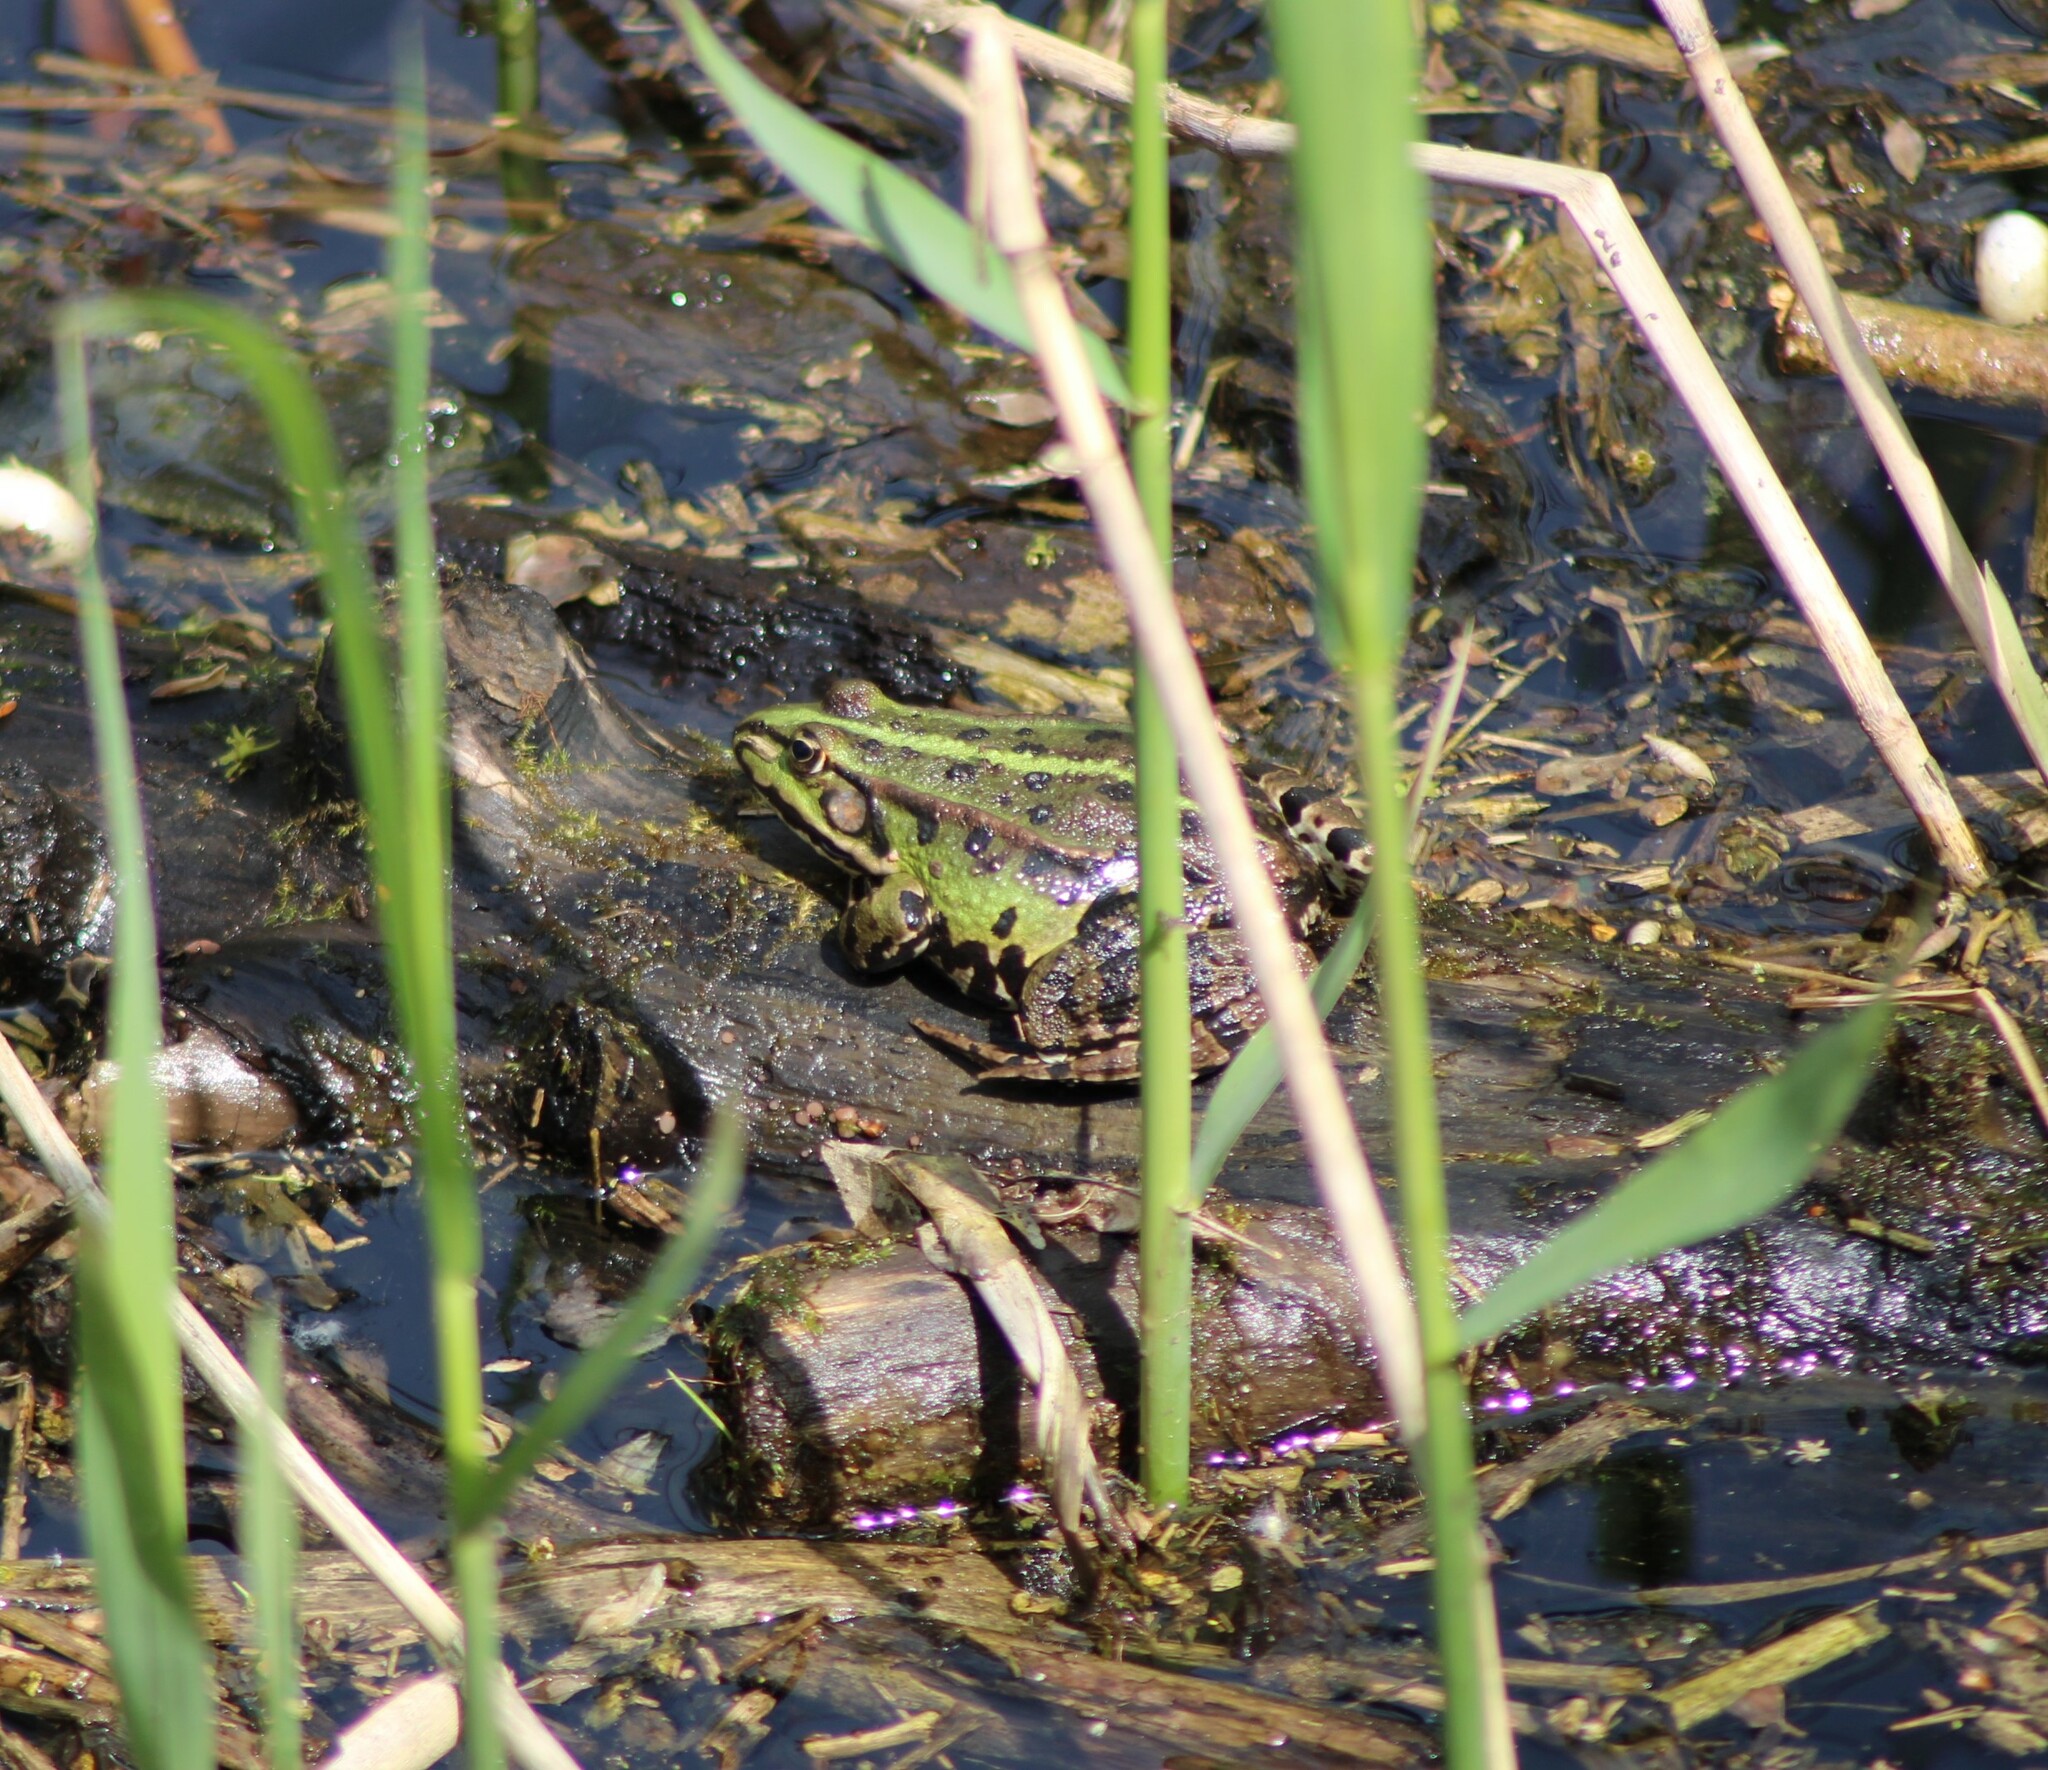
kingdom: Animalia
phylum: Chordata
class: Amphibia
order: Anura
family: Ranidae
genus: Pelophylax
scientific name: Pelophylax
